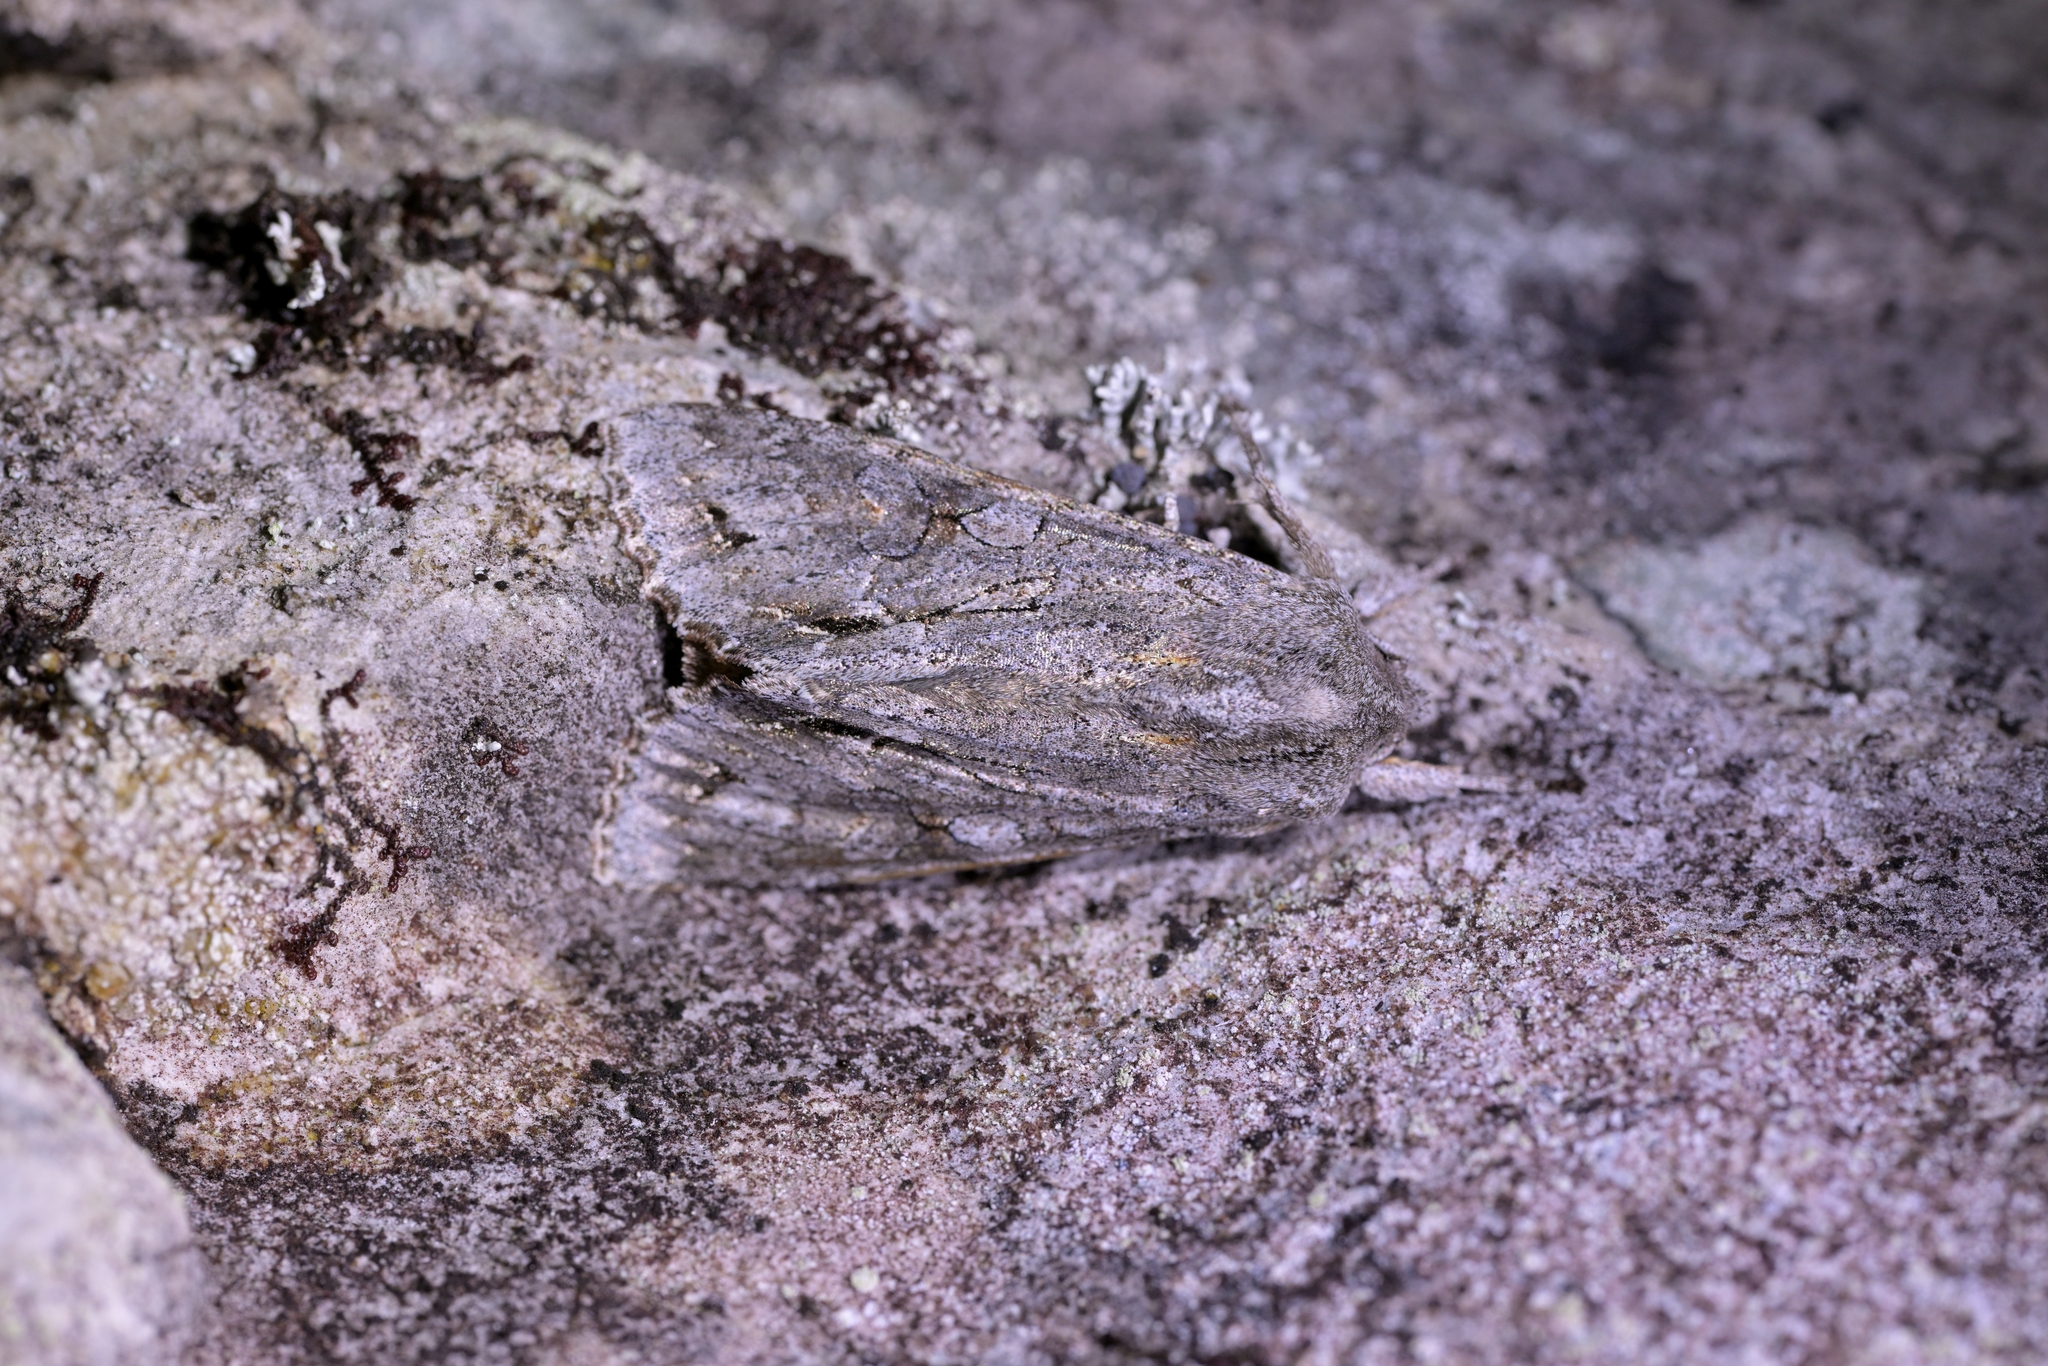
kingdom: Animalia
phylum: Arthropoda
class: Insecta
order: Lepidoptera
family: Noctuidae
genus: Ichneutica
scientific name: Ichneutica
